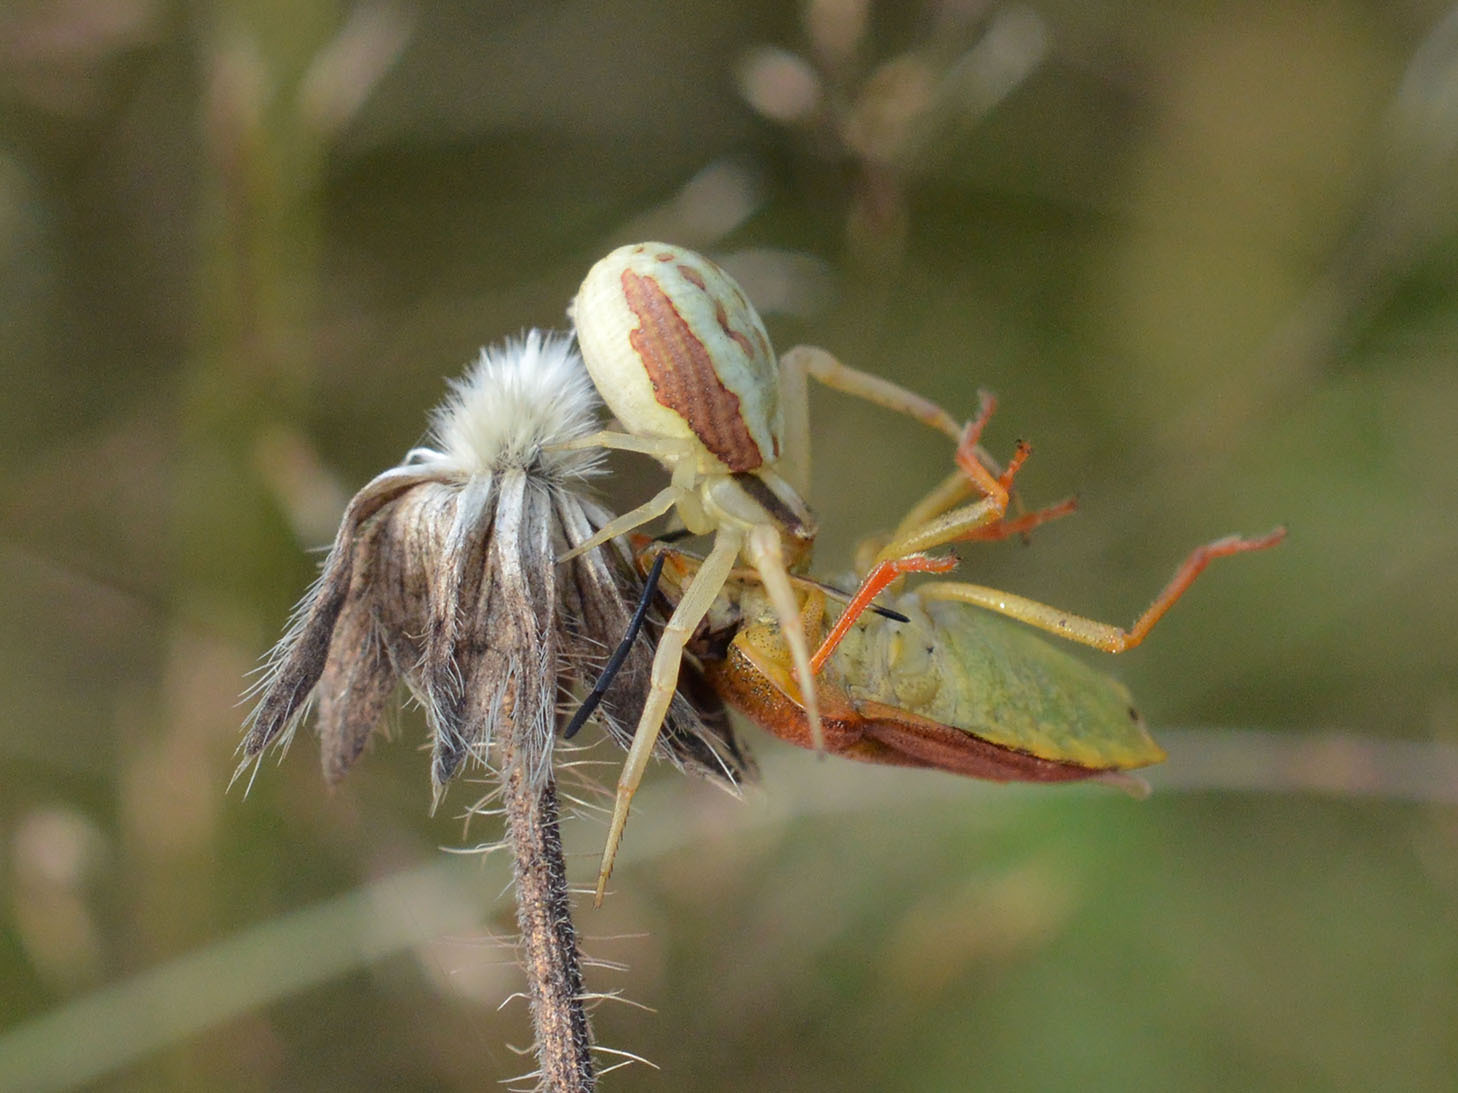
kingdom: Animalia
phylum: Arthropoda
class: Arachnida
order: Araneae
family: Thomisidae
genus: Runcinia
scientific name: Runcinia grammica
